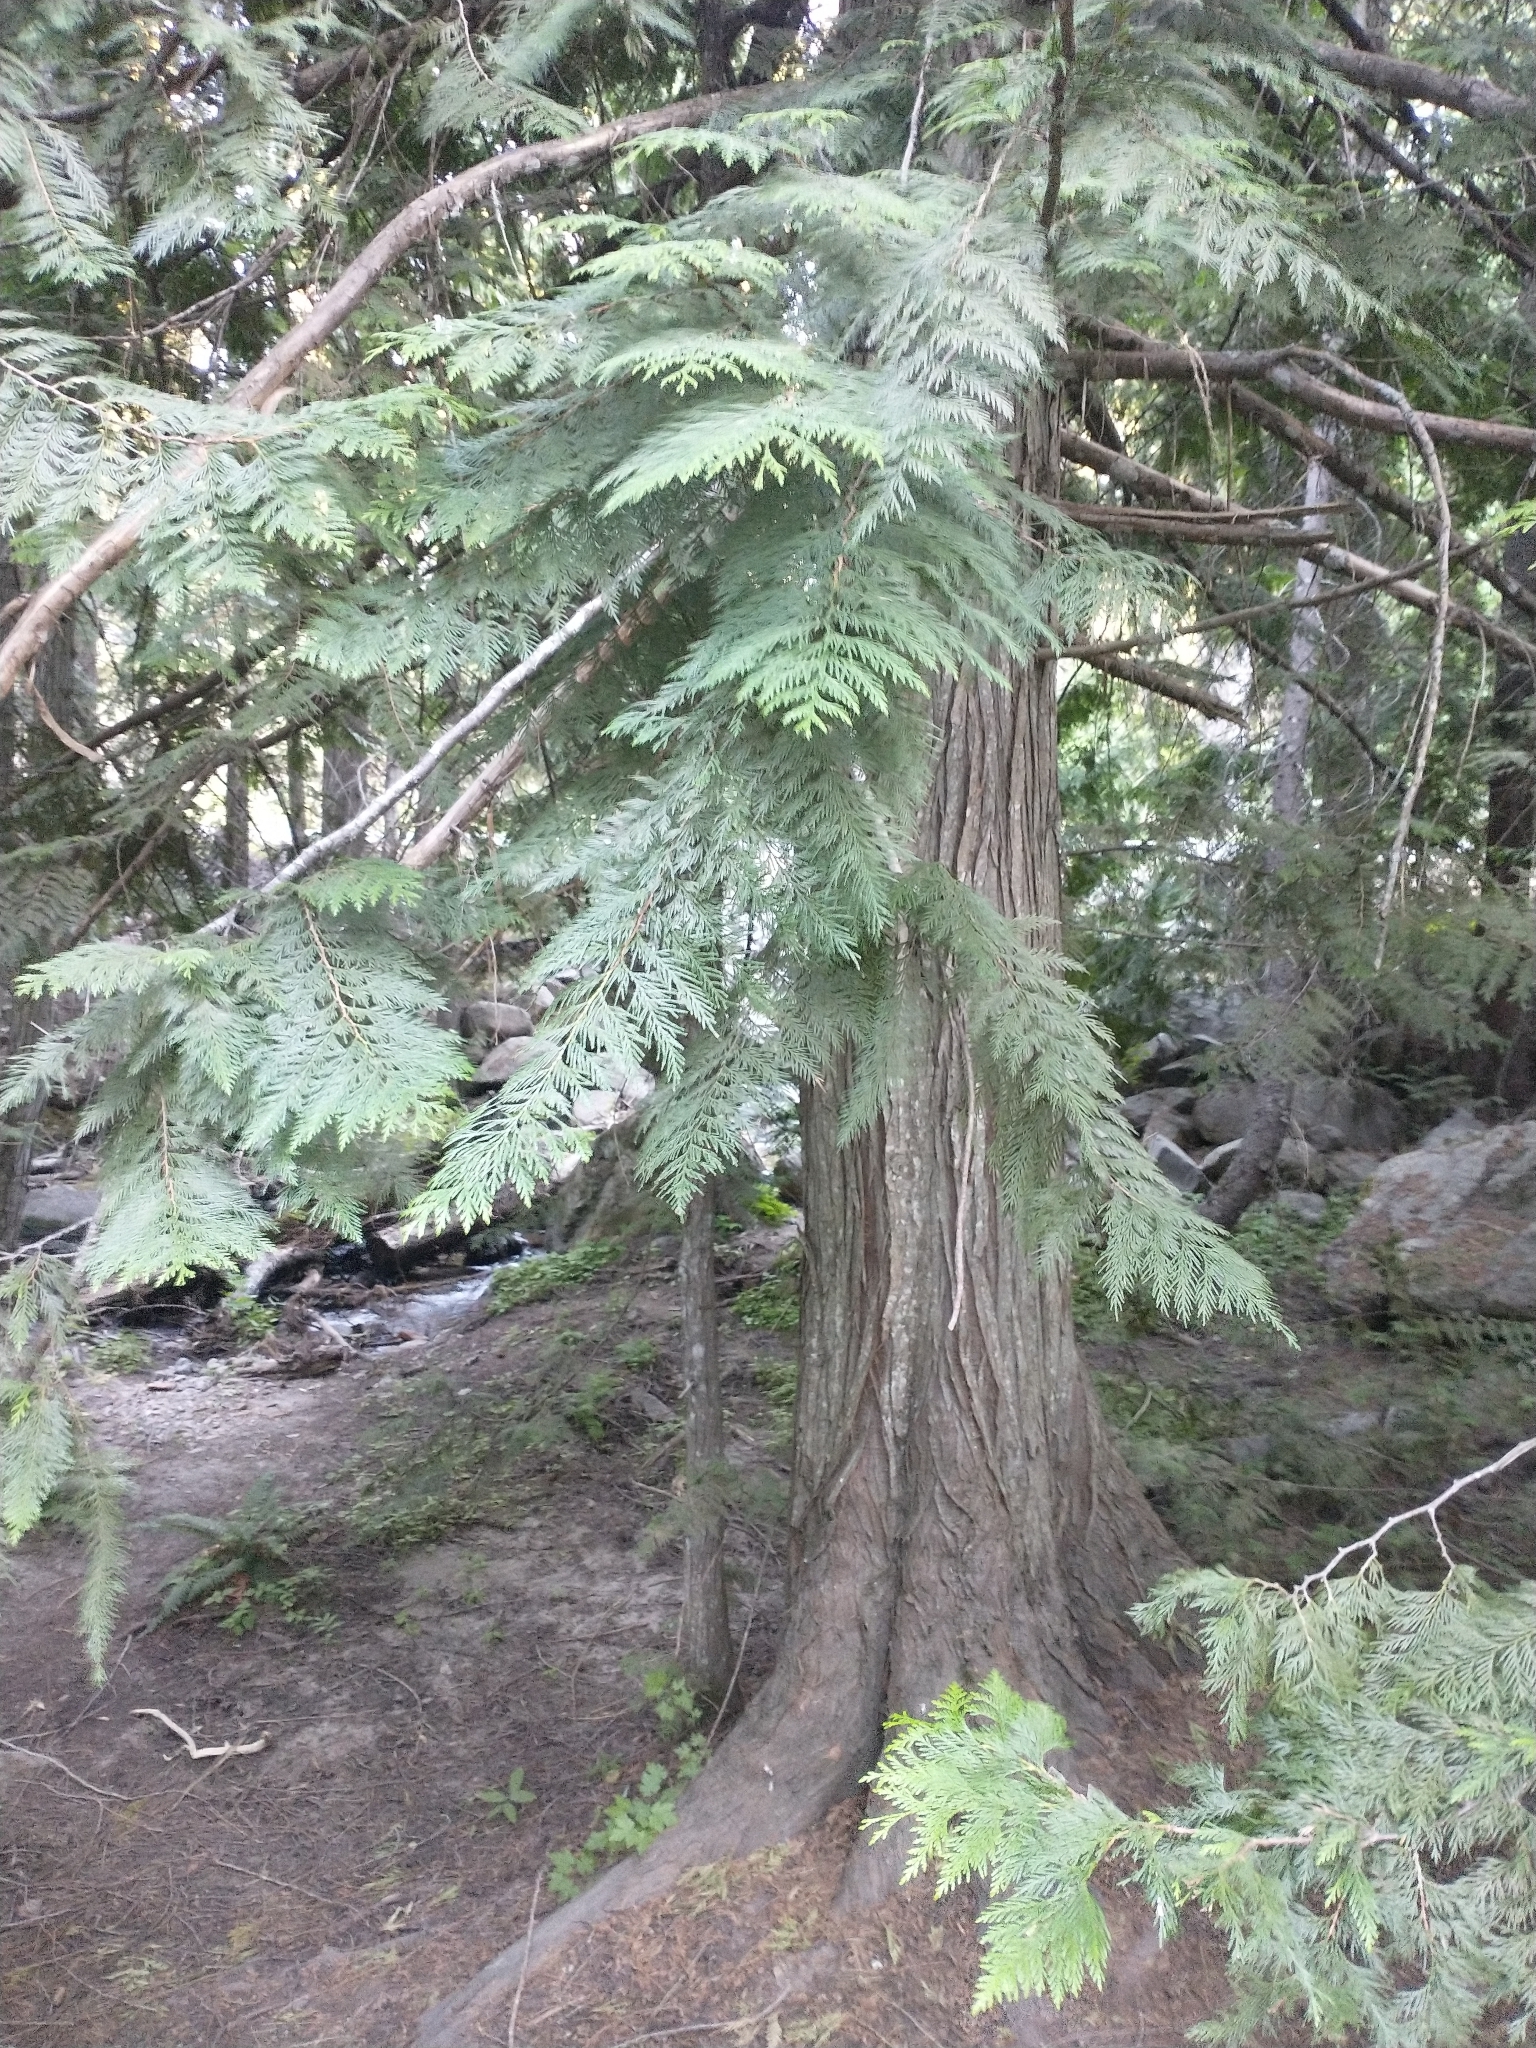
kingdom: Plantae
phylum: Tracheophyta
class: Pinopsida
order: Pinales
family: Cupressaceae
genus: Thuja
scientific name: Thuja plicata
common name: Western red-cedar
